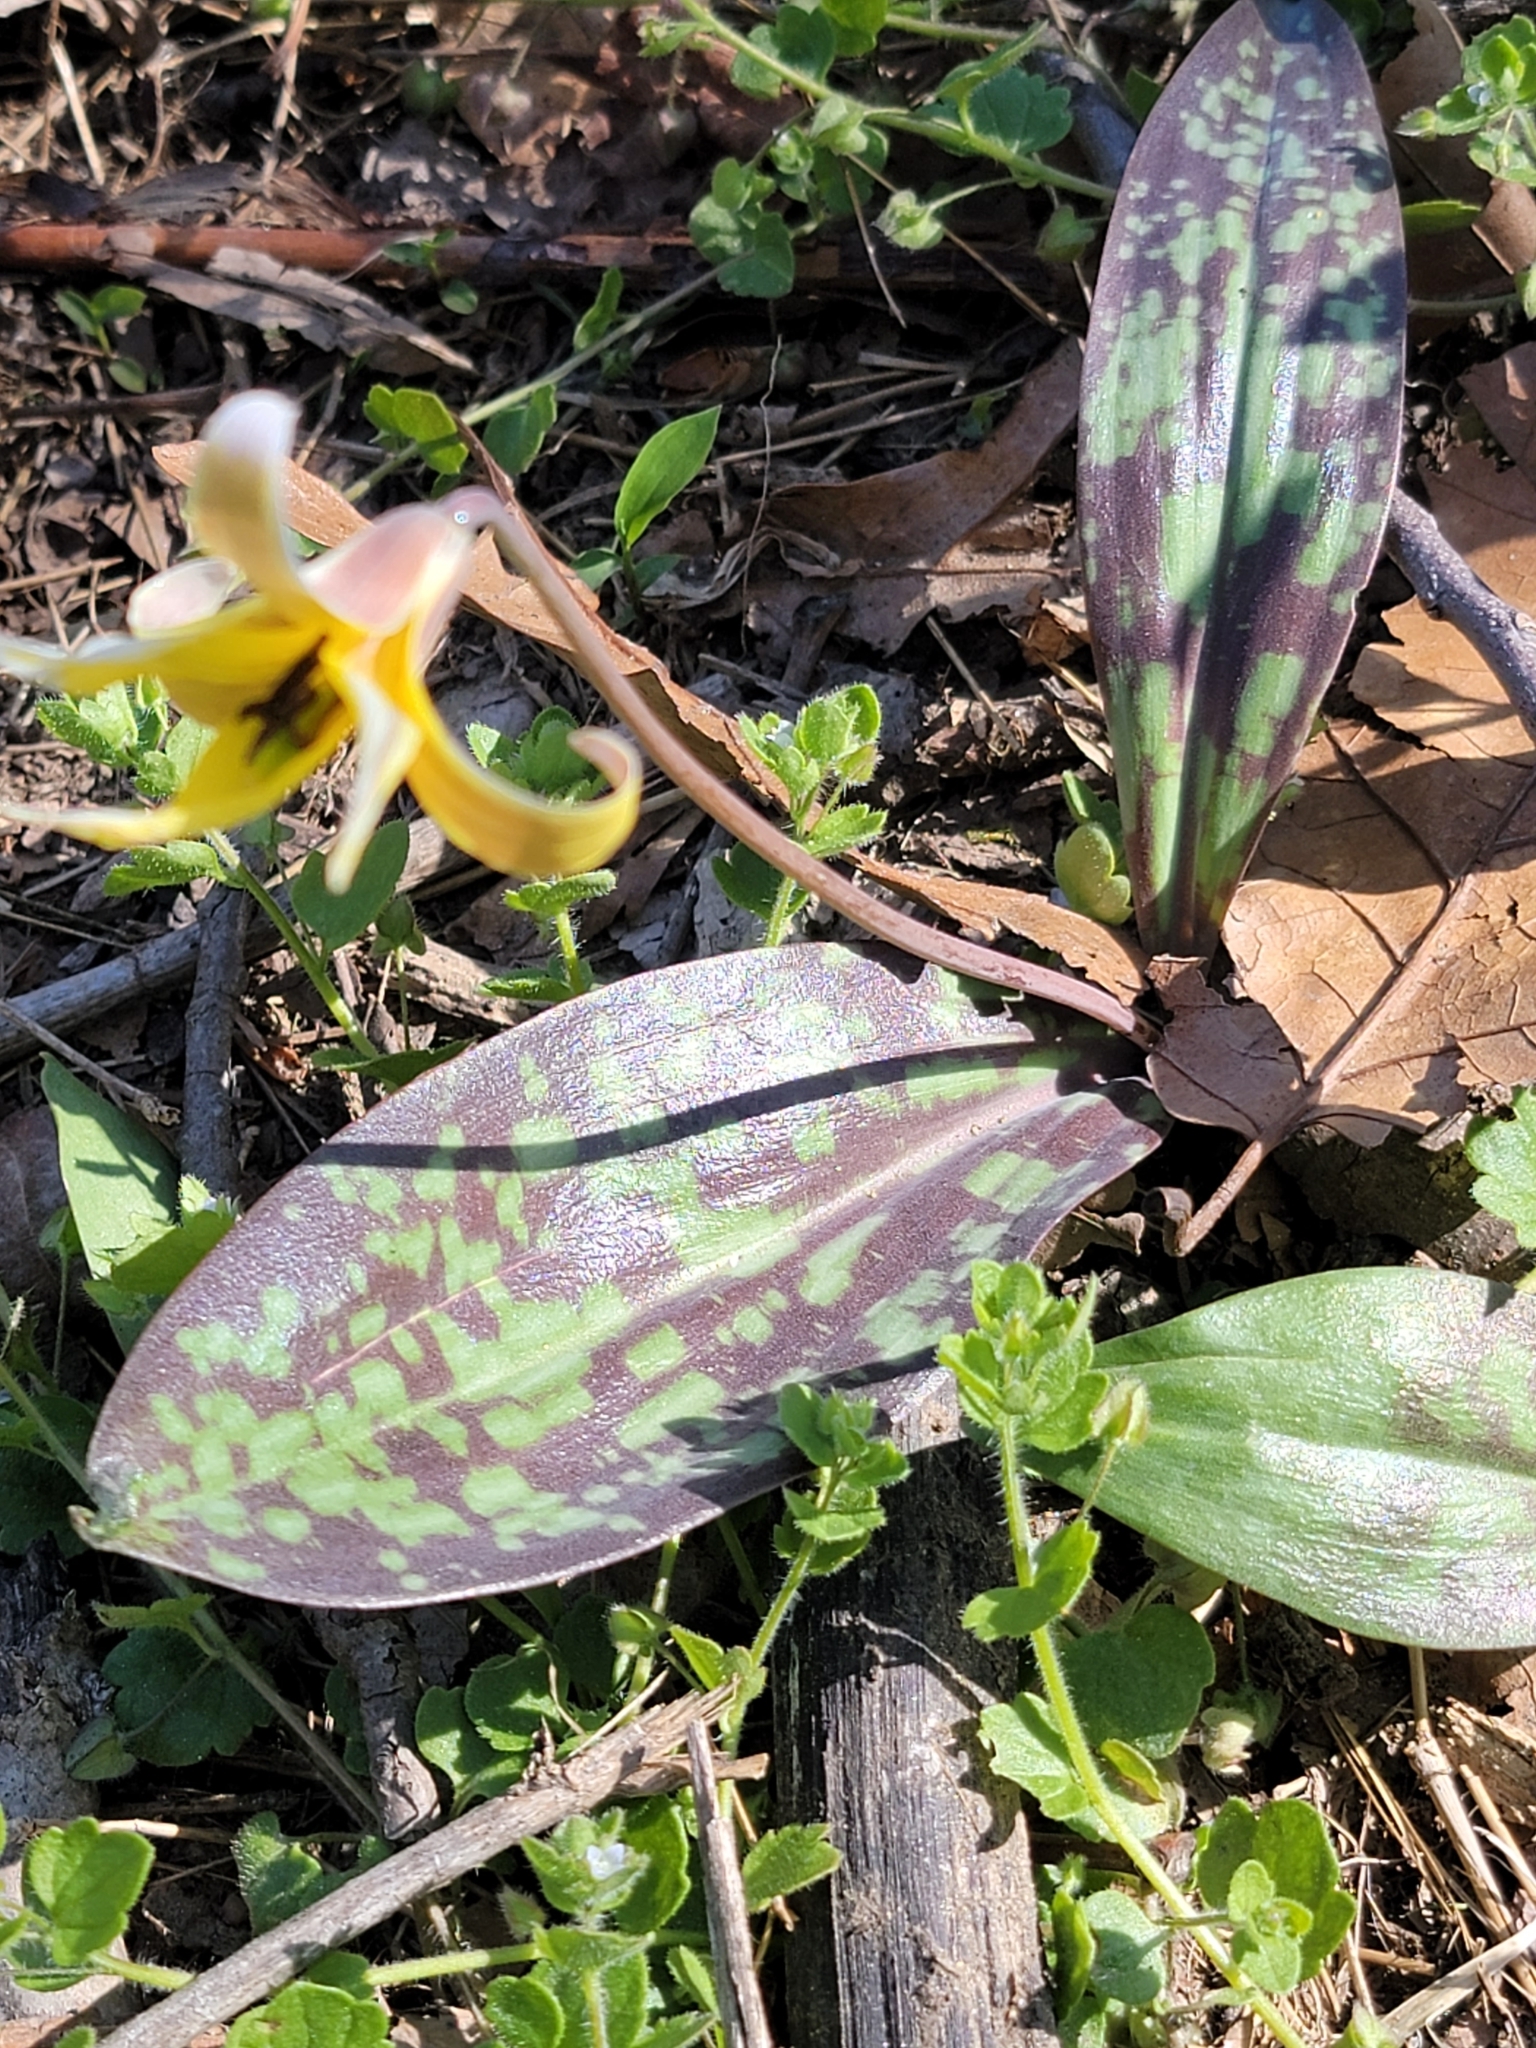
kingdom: Plantae
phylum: Tracheophyta
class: Liliopsida
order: Liliales
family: Liliaceae
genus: Erythronium
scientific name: Erythronium americanum
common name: Yellow adder's-tongue
